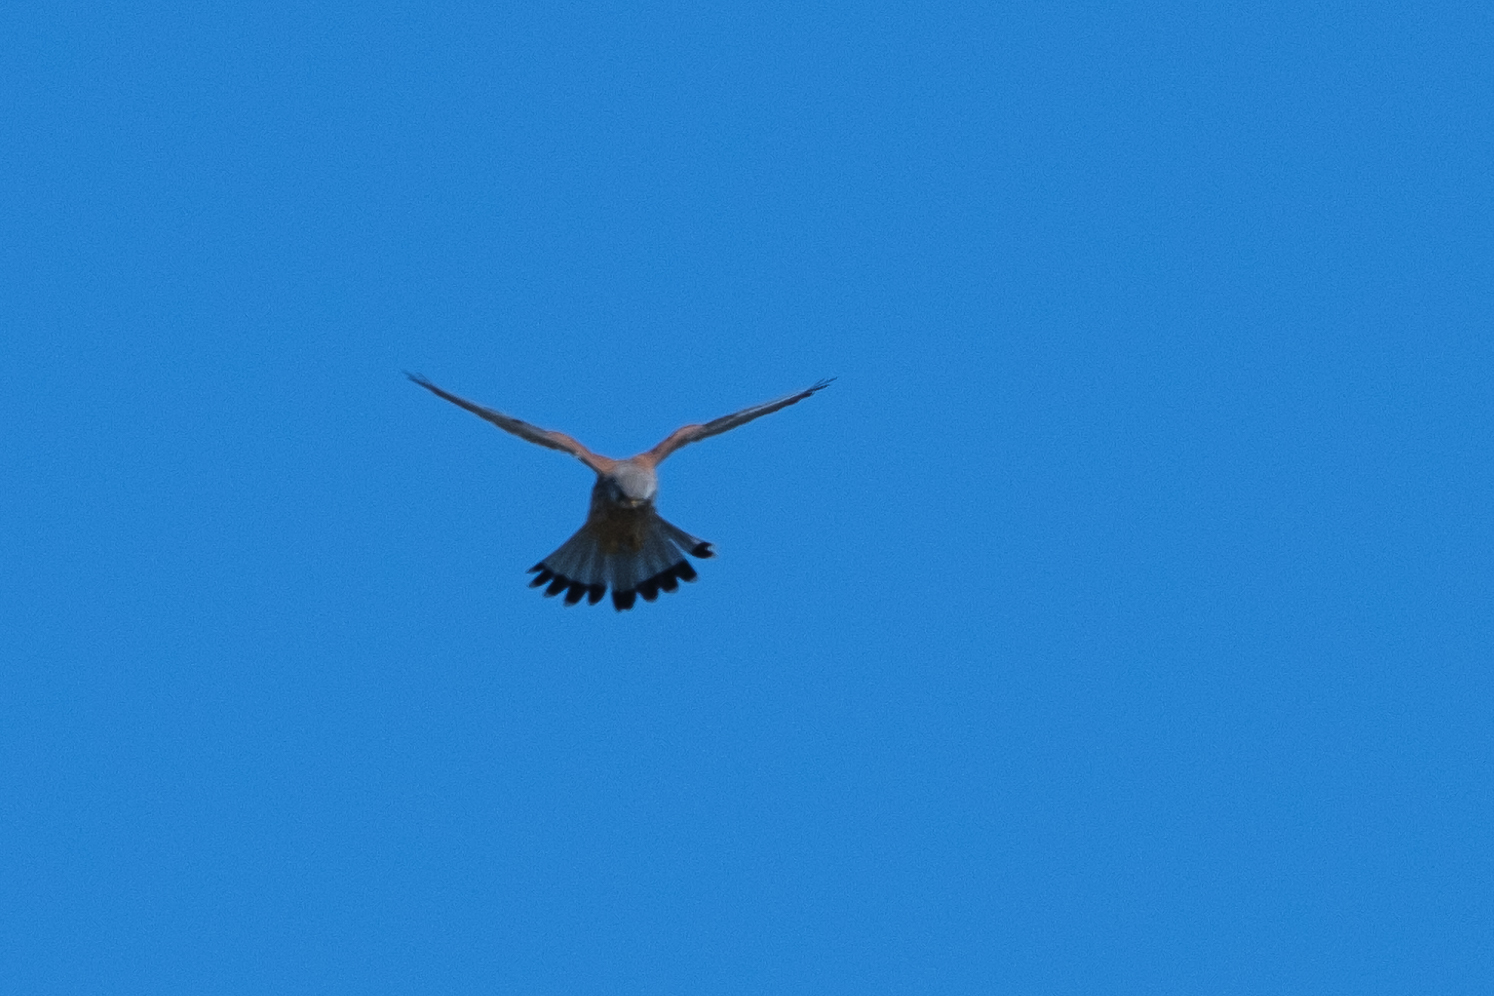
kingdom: Animalia
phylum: Chordata
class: Aves
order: Falconiformes
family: Falconidae
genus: Falco
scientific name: Falco tinnunculus
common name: Common kestrel
